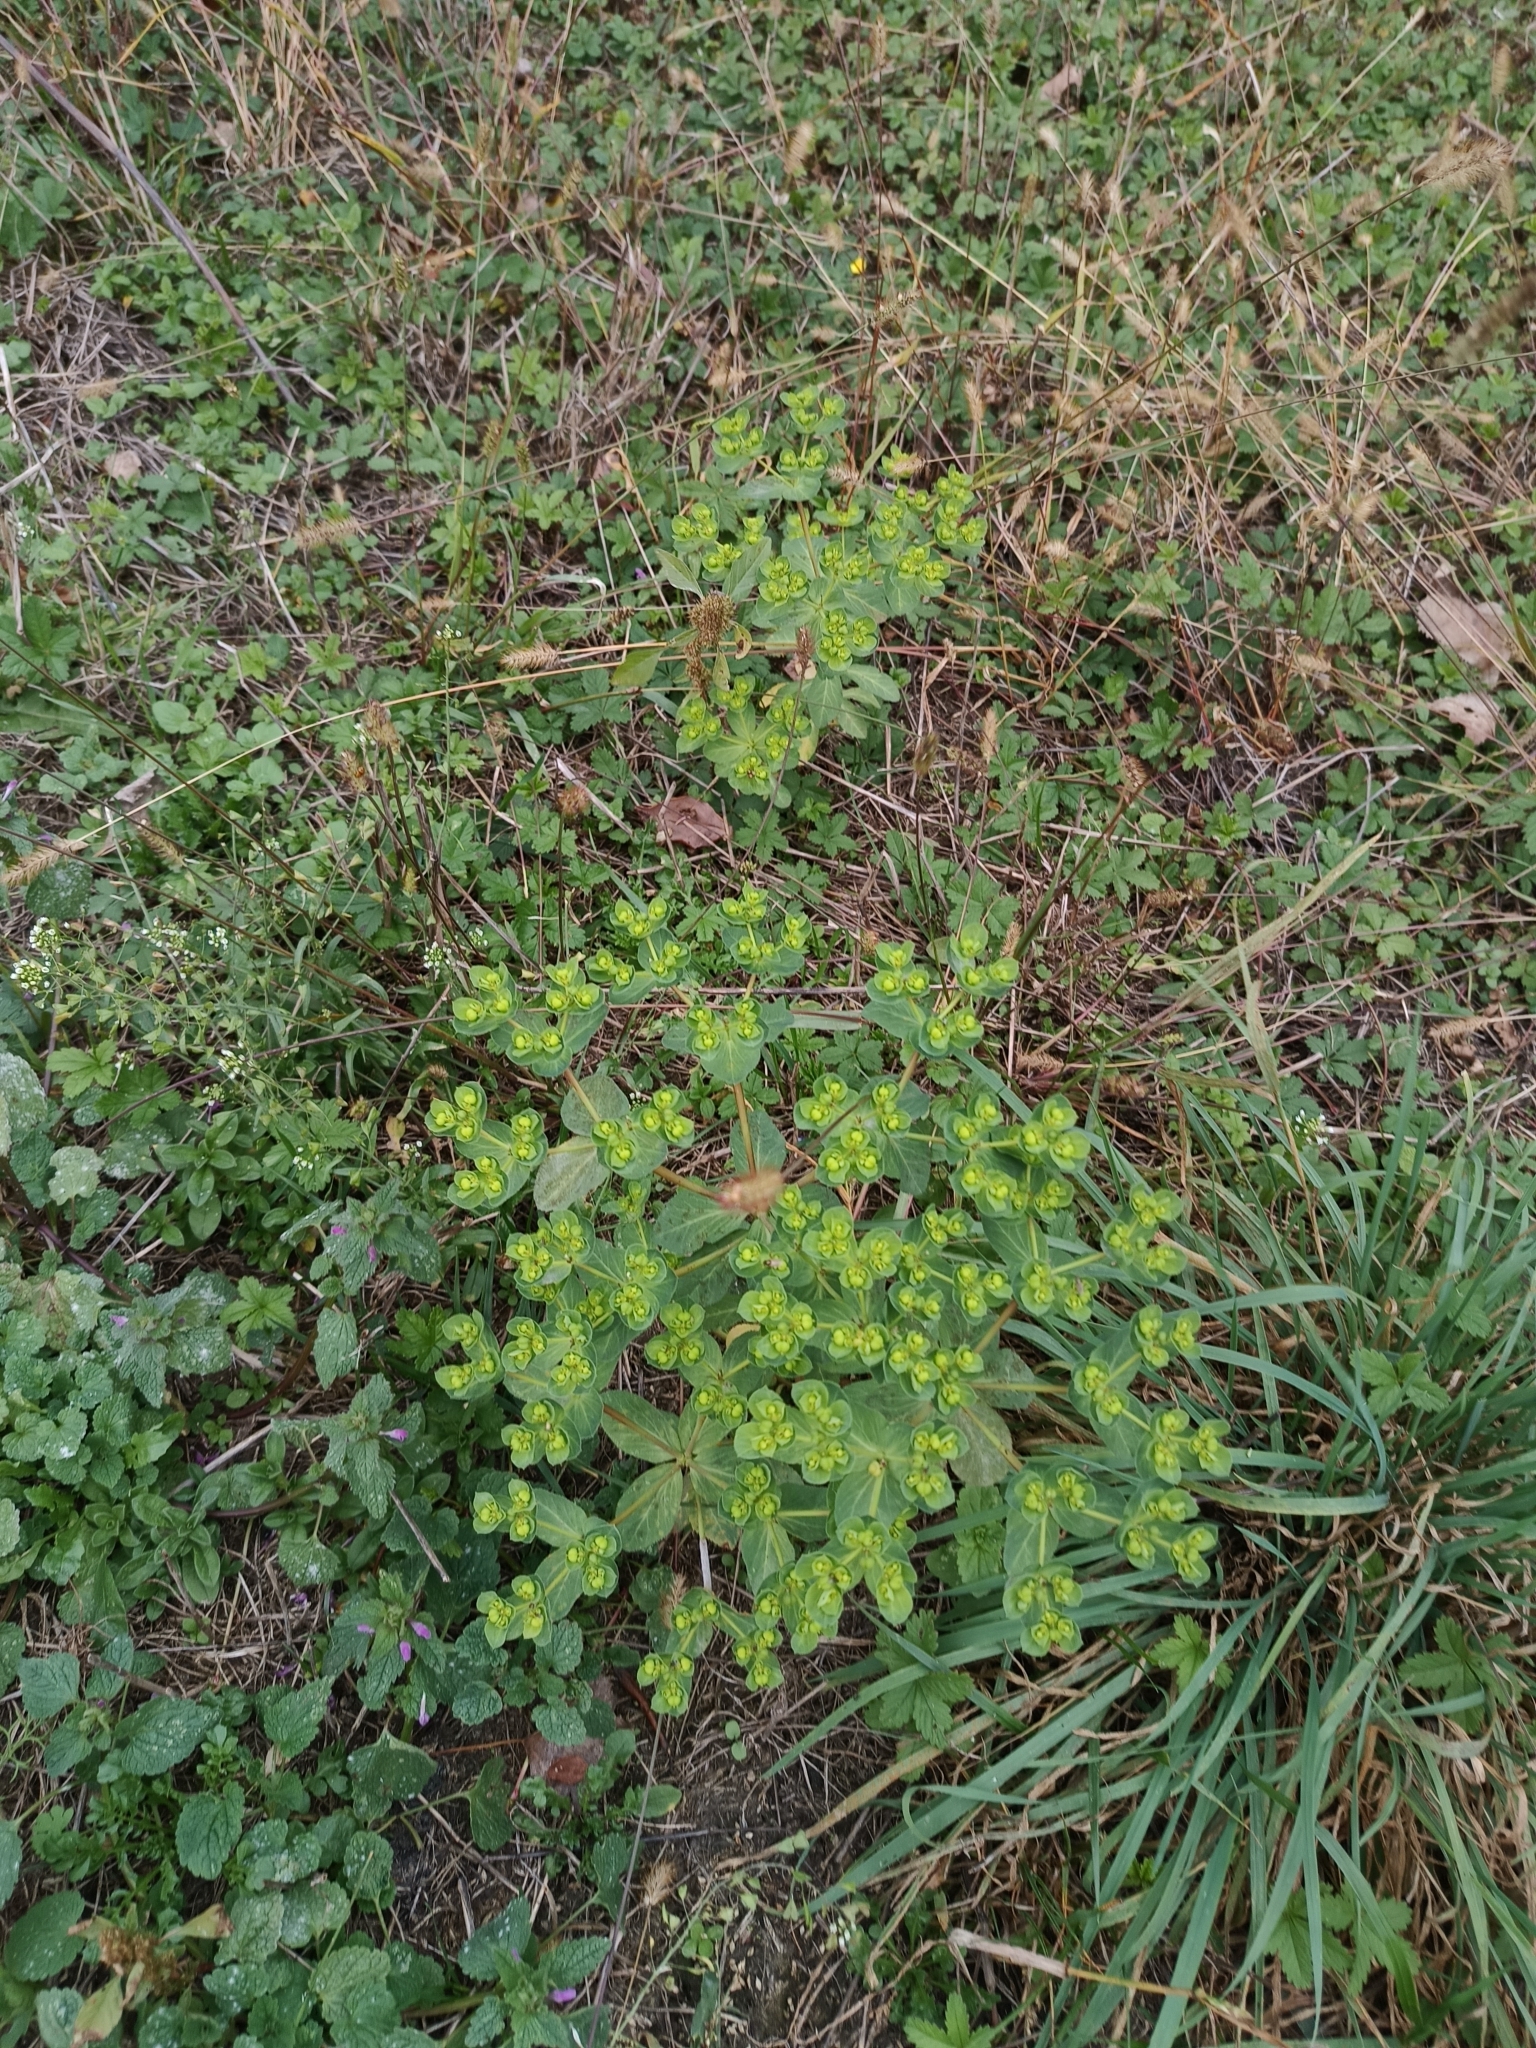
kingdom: Plantae
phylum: Tracheophyta
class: Magnoliopsida
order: Malpighiales
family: Euphorbiaceae
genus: Euphorbia
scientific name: Euphorbia helioscopia
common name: Sun spurge
